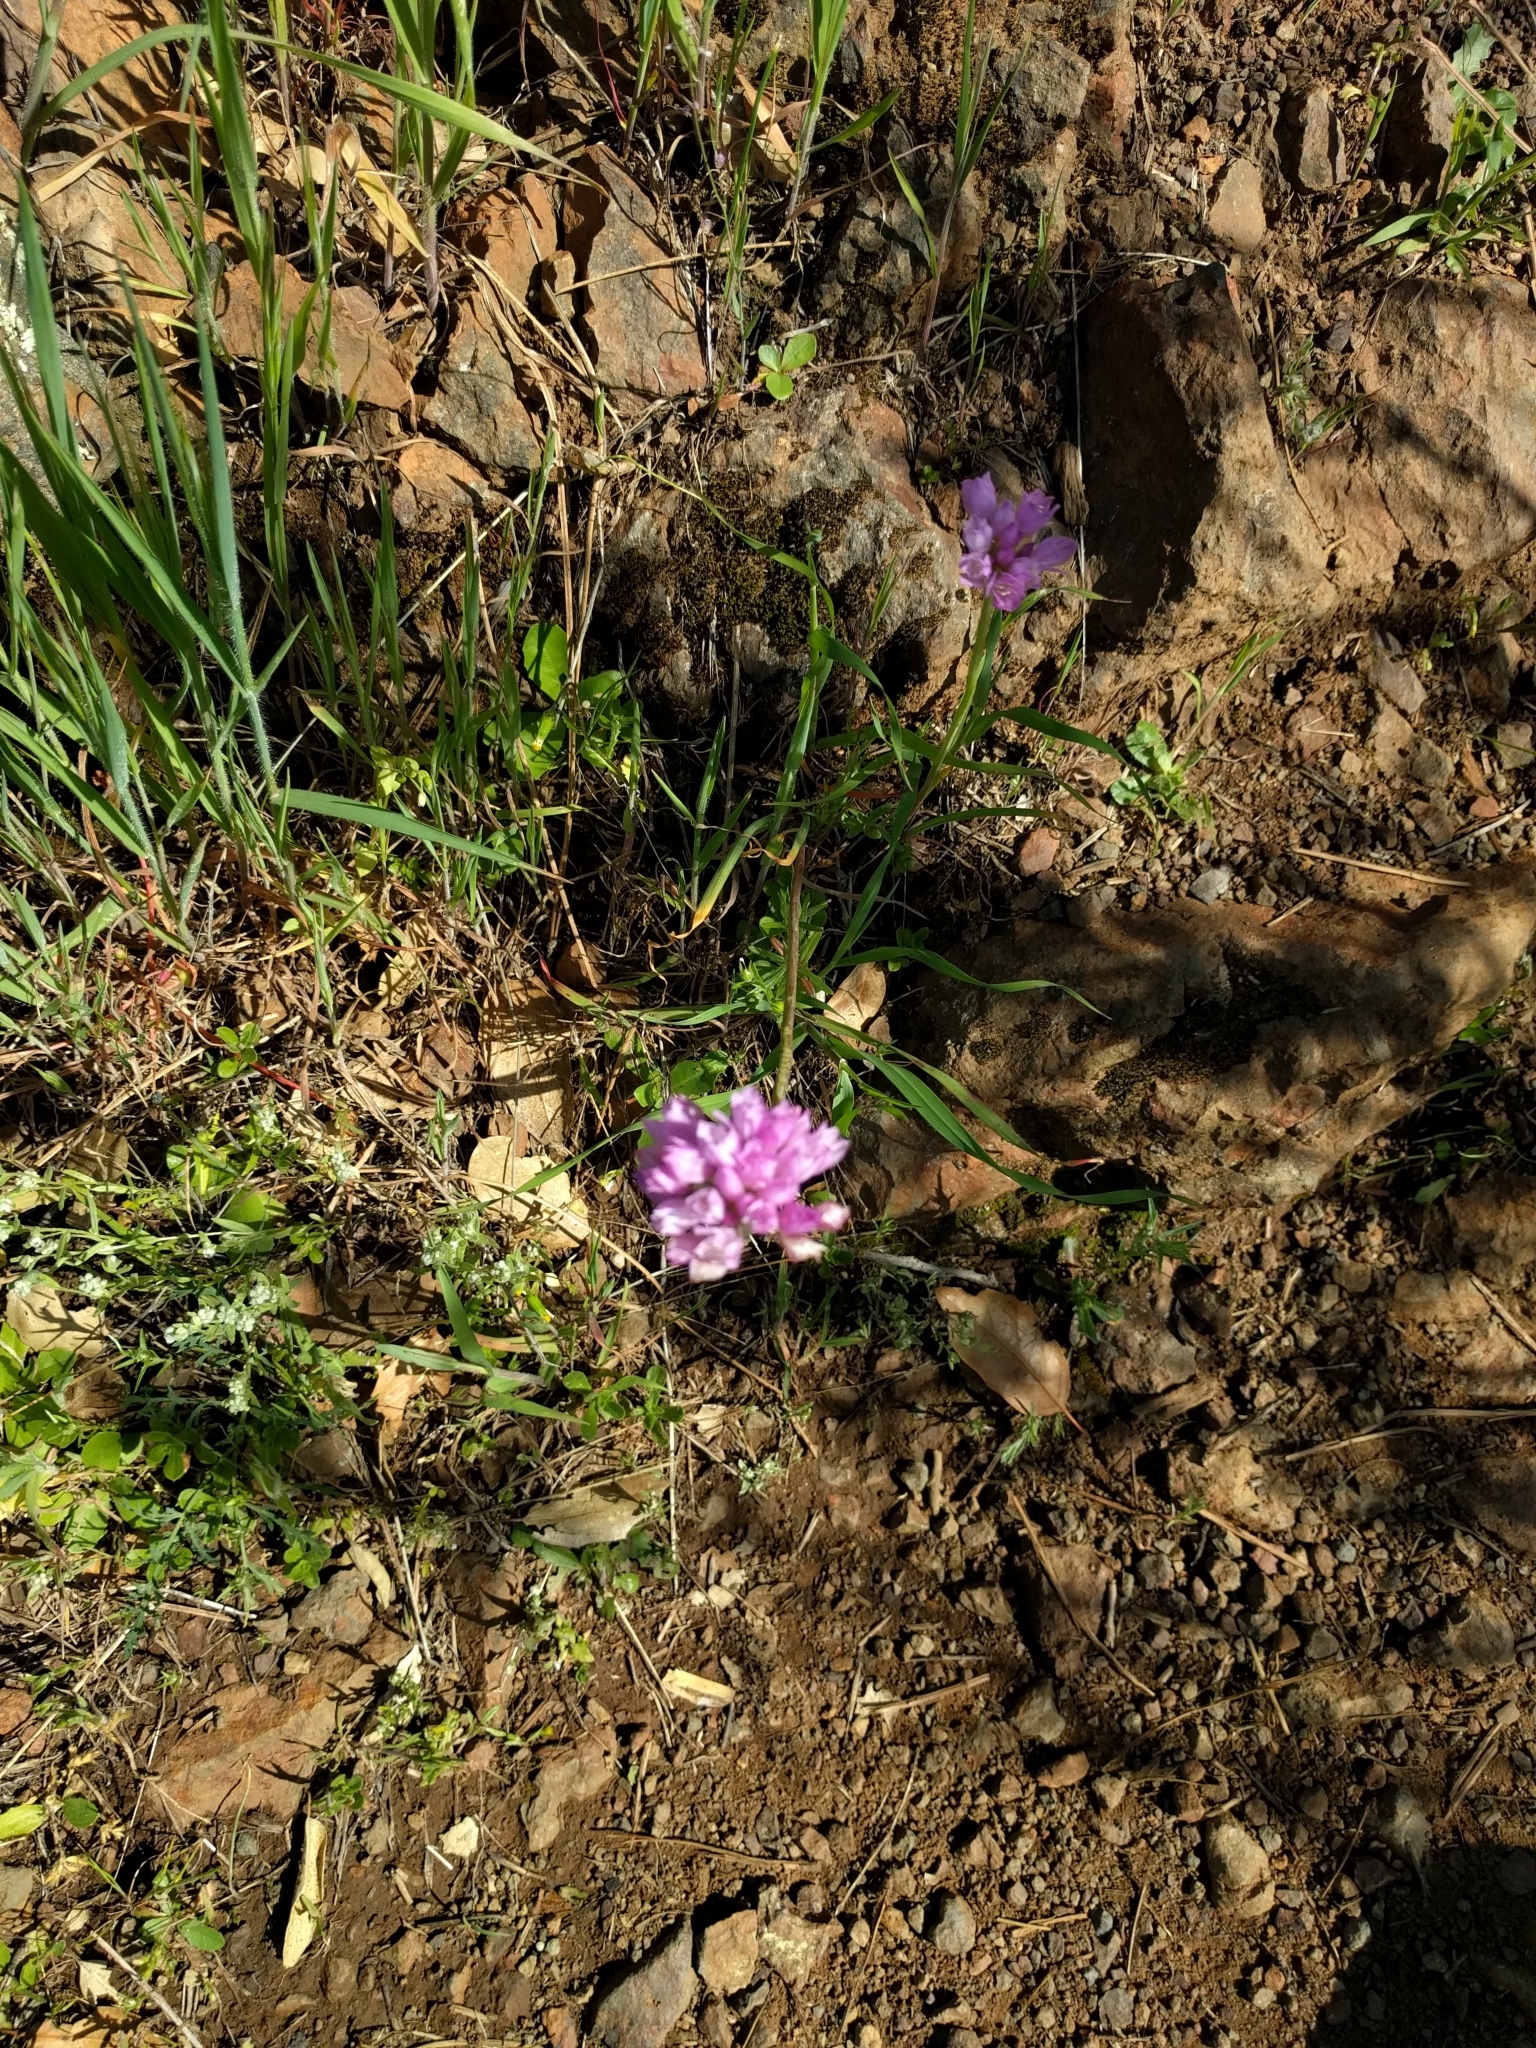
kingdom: Plantae
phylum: Tracheophyta
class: Liliopsida
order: Asparagales
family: Amaryllidaceae
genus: Allium
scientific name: Allium serra
